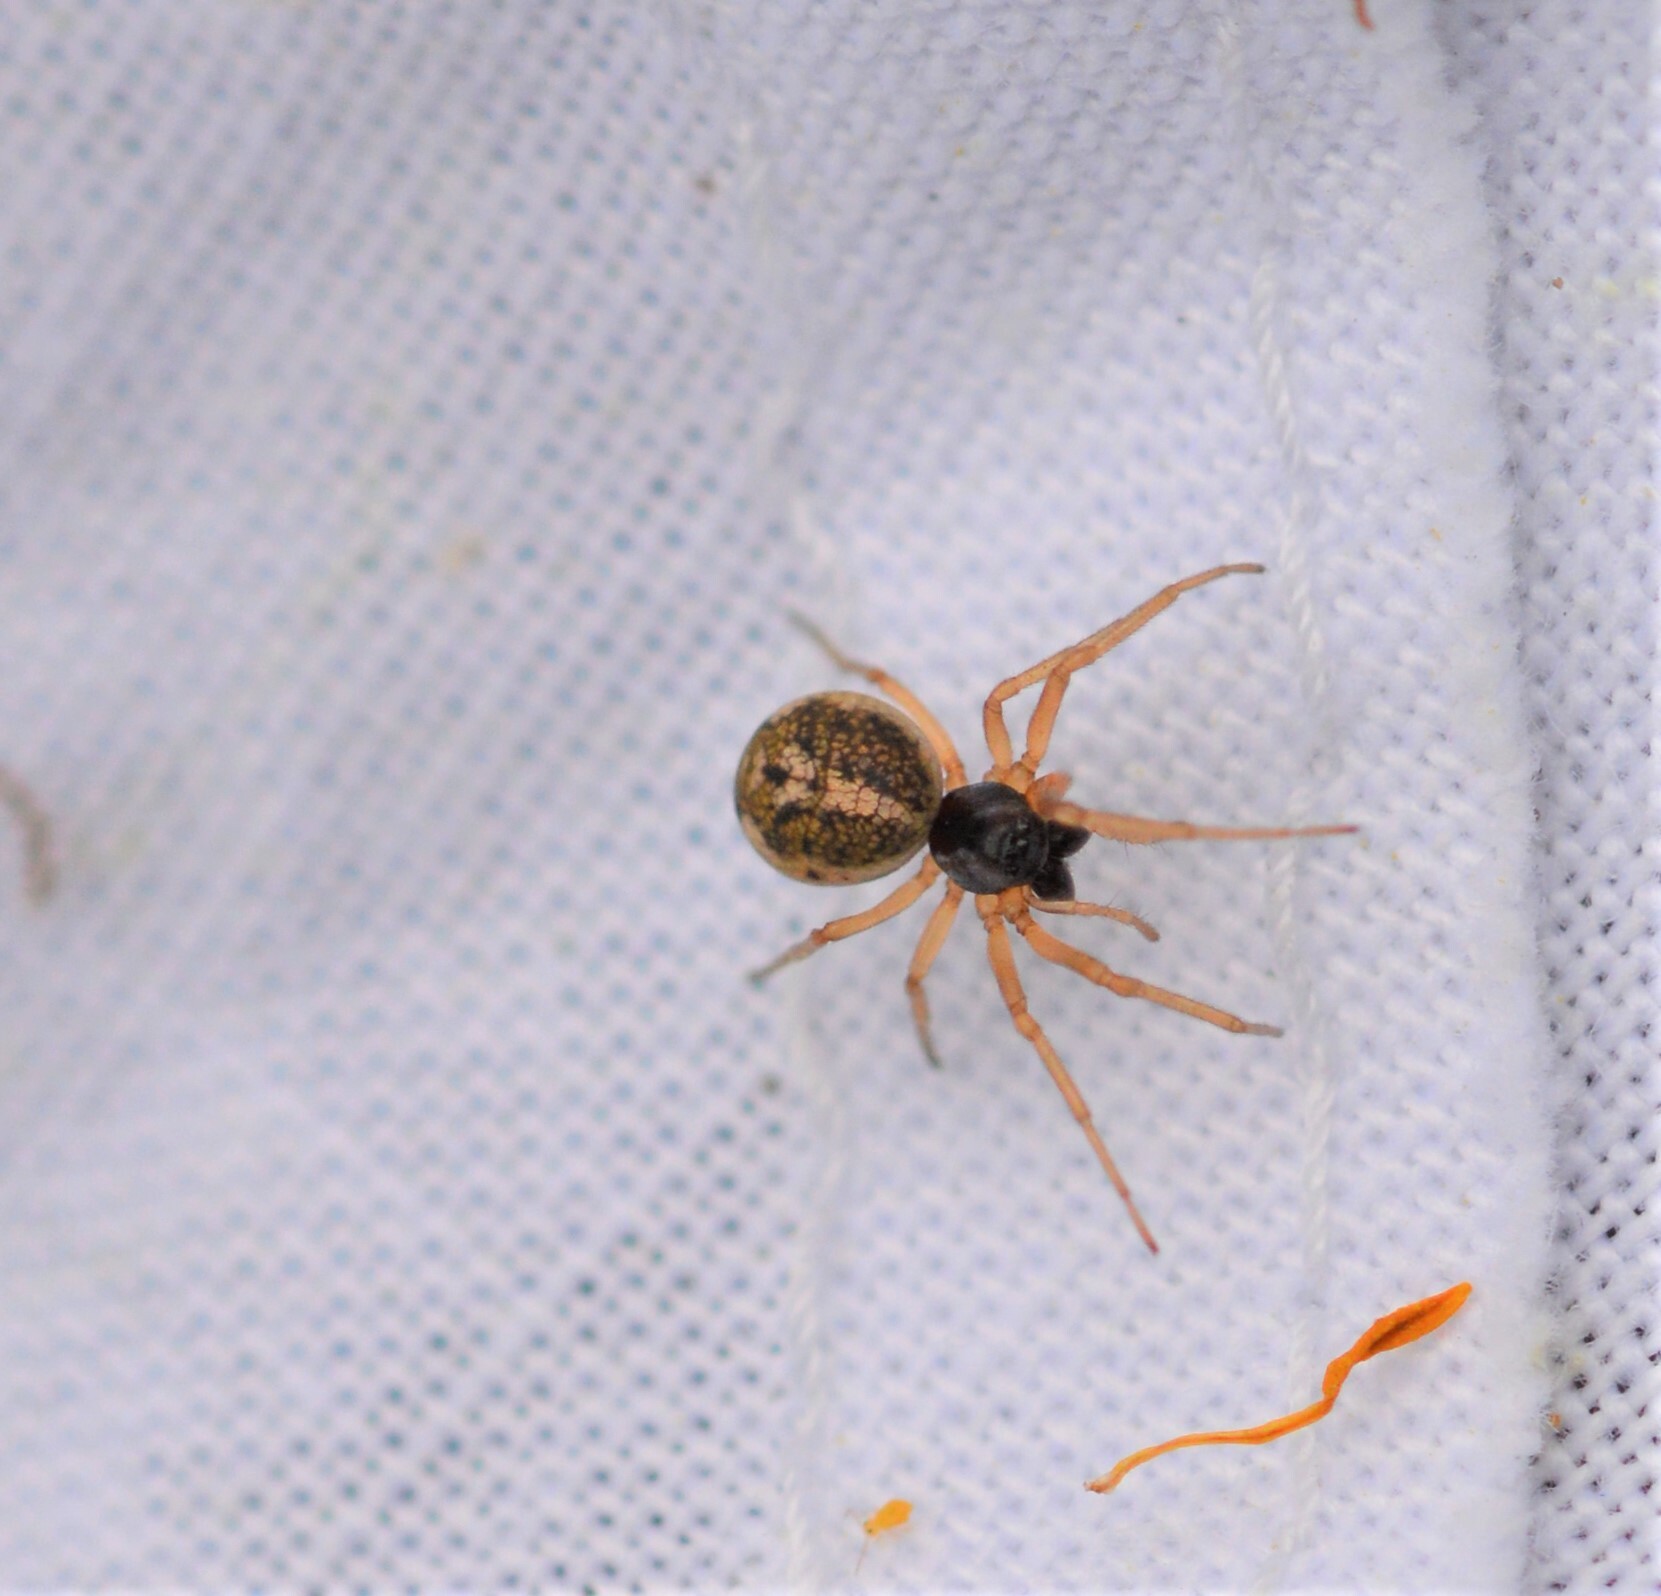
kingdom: Animalia
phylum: Arthropoda
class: Arachnida
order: Araneae
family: Tetragnathidae
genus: Pachygnatha
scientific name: Pachygnatha degeeri
